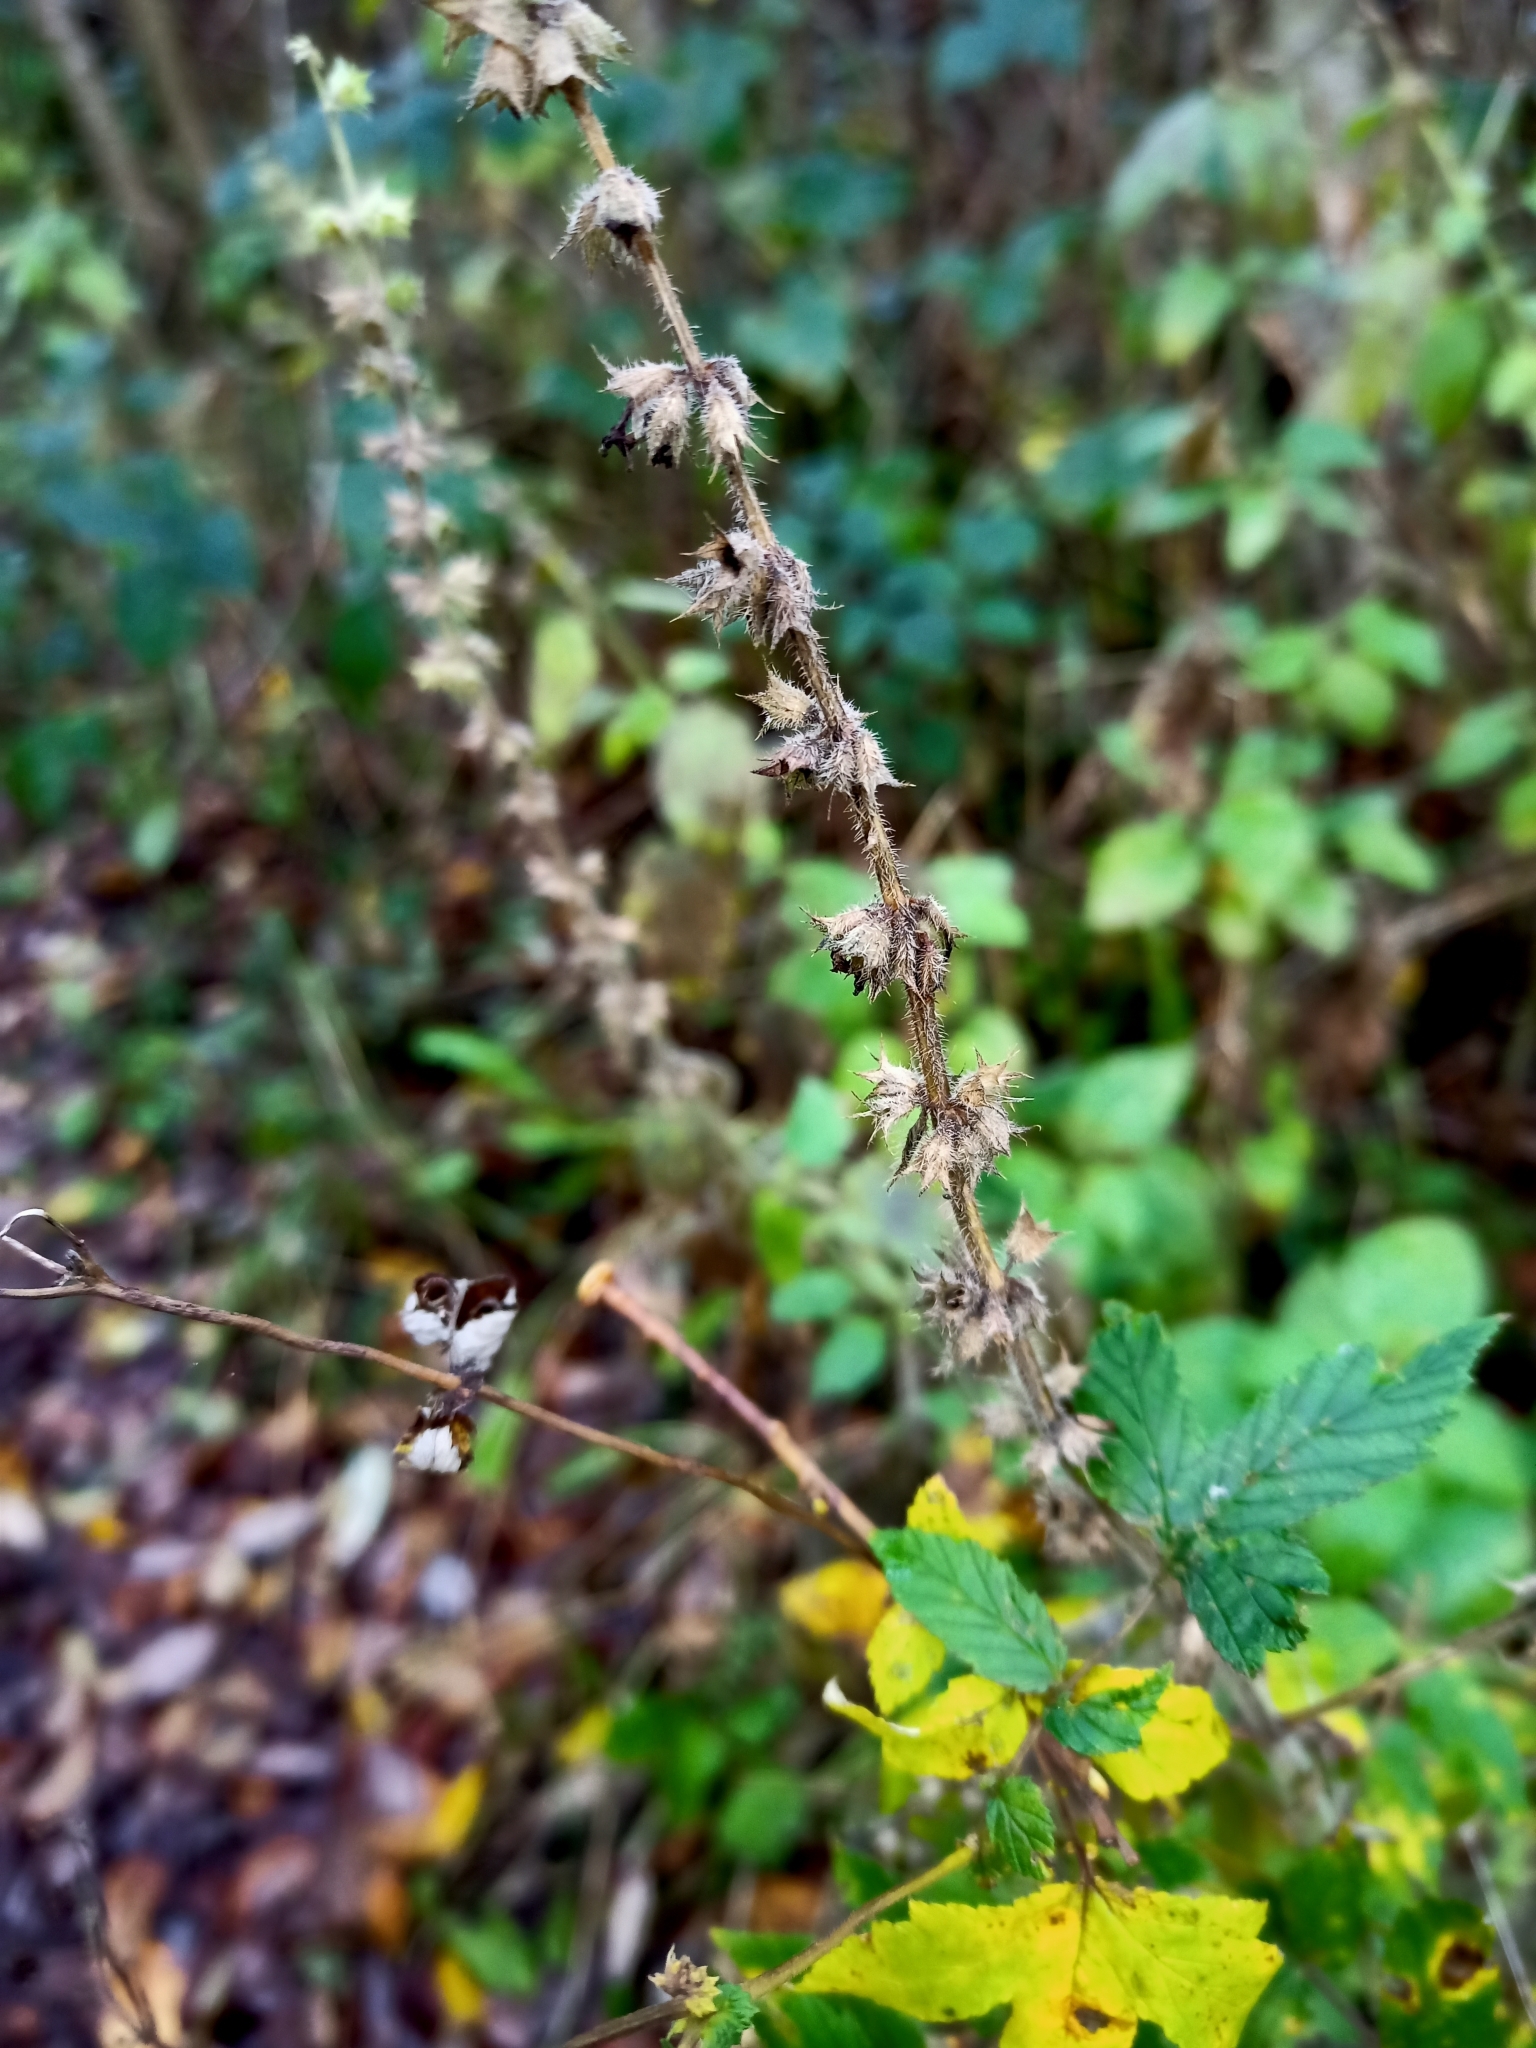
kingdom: Plantae
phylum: Tracheophyta
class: Magnoliopsida
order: Lamiales
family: Lamiaceae
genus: Stachys
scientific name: Stachys sylvatica
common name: Hedge woundwort
